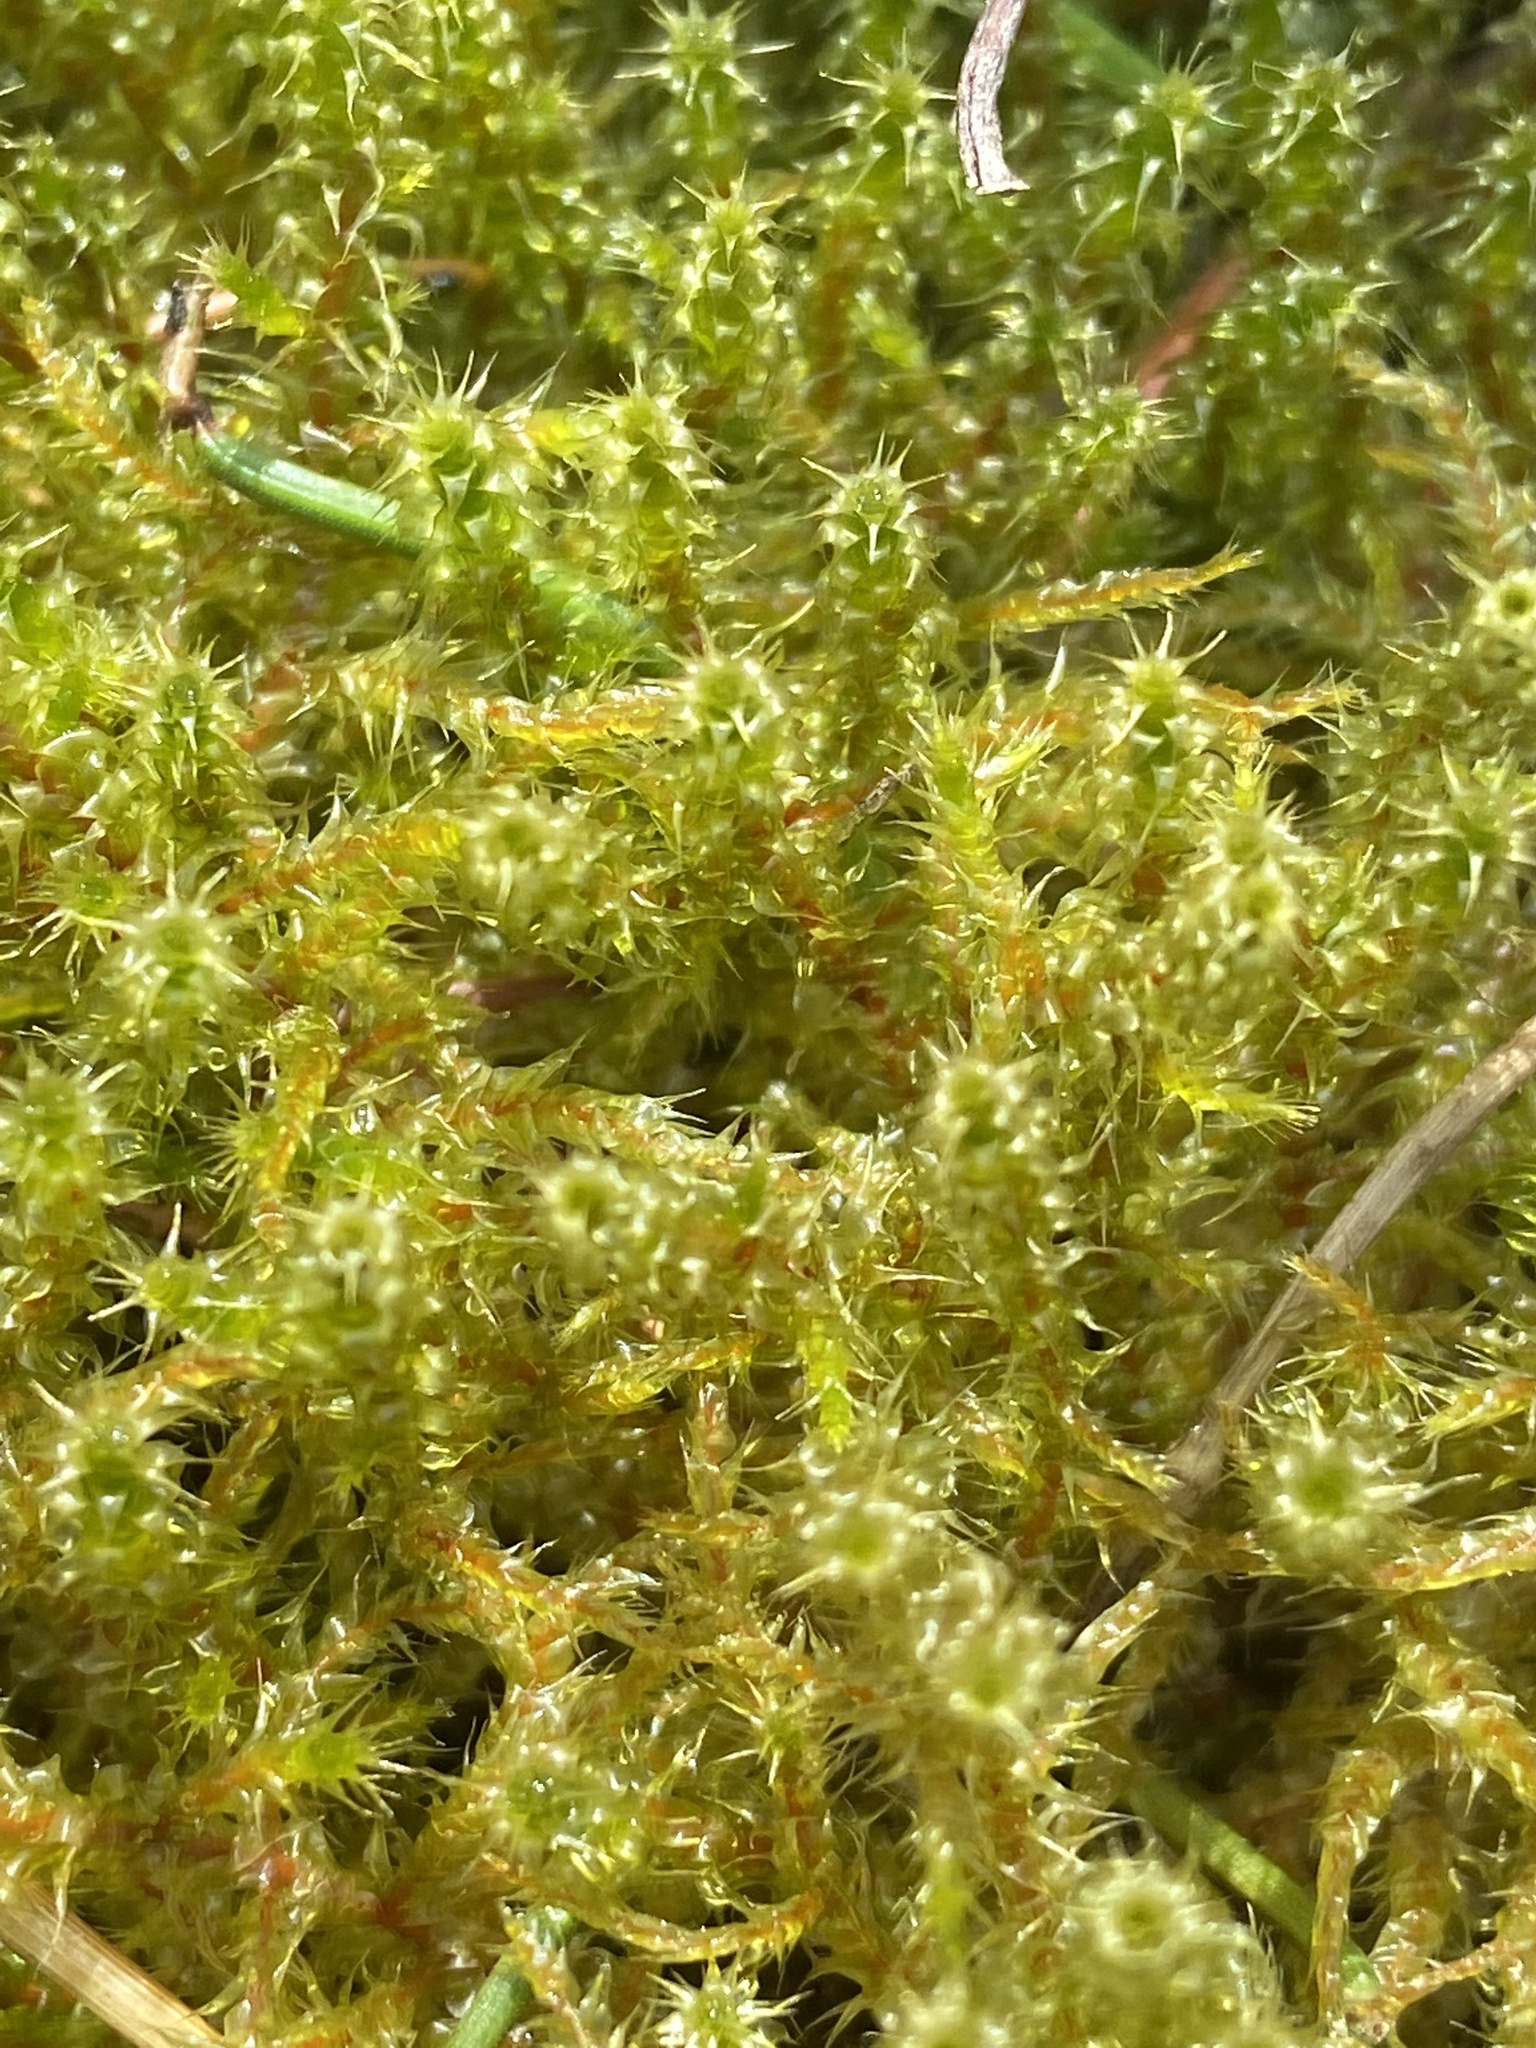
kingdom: Plantae
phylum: Bryophyta
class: Bryopsida
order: Hypnales
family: Hylocomiaceae
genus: Rhytidiadelphus
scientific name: Rhytidiadelphus squarrosus
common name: Springy turf-moss
